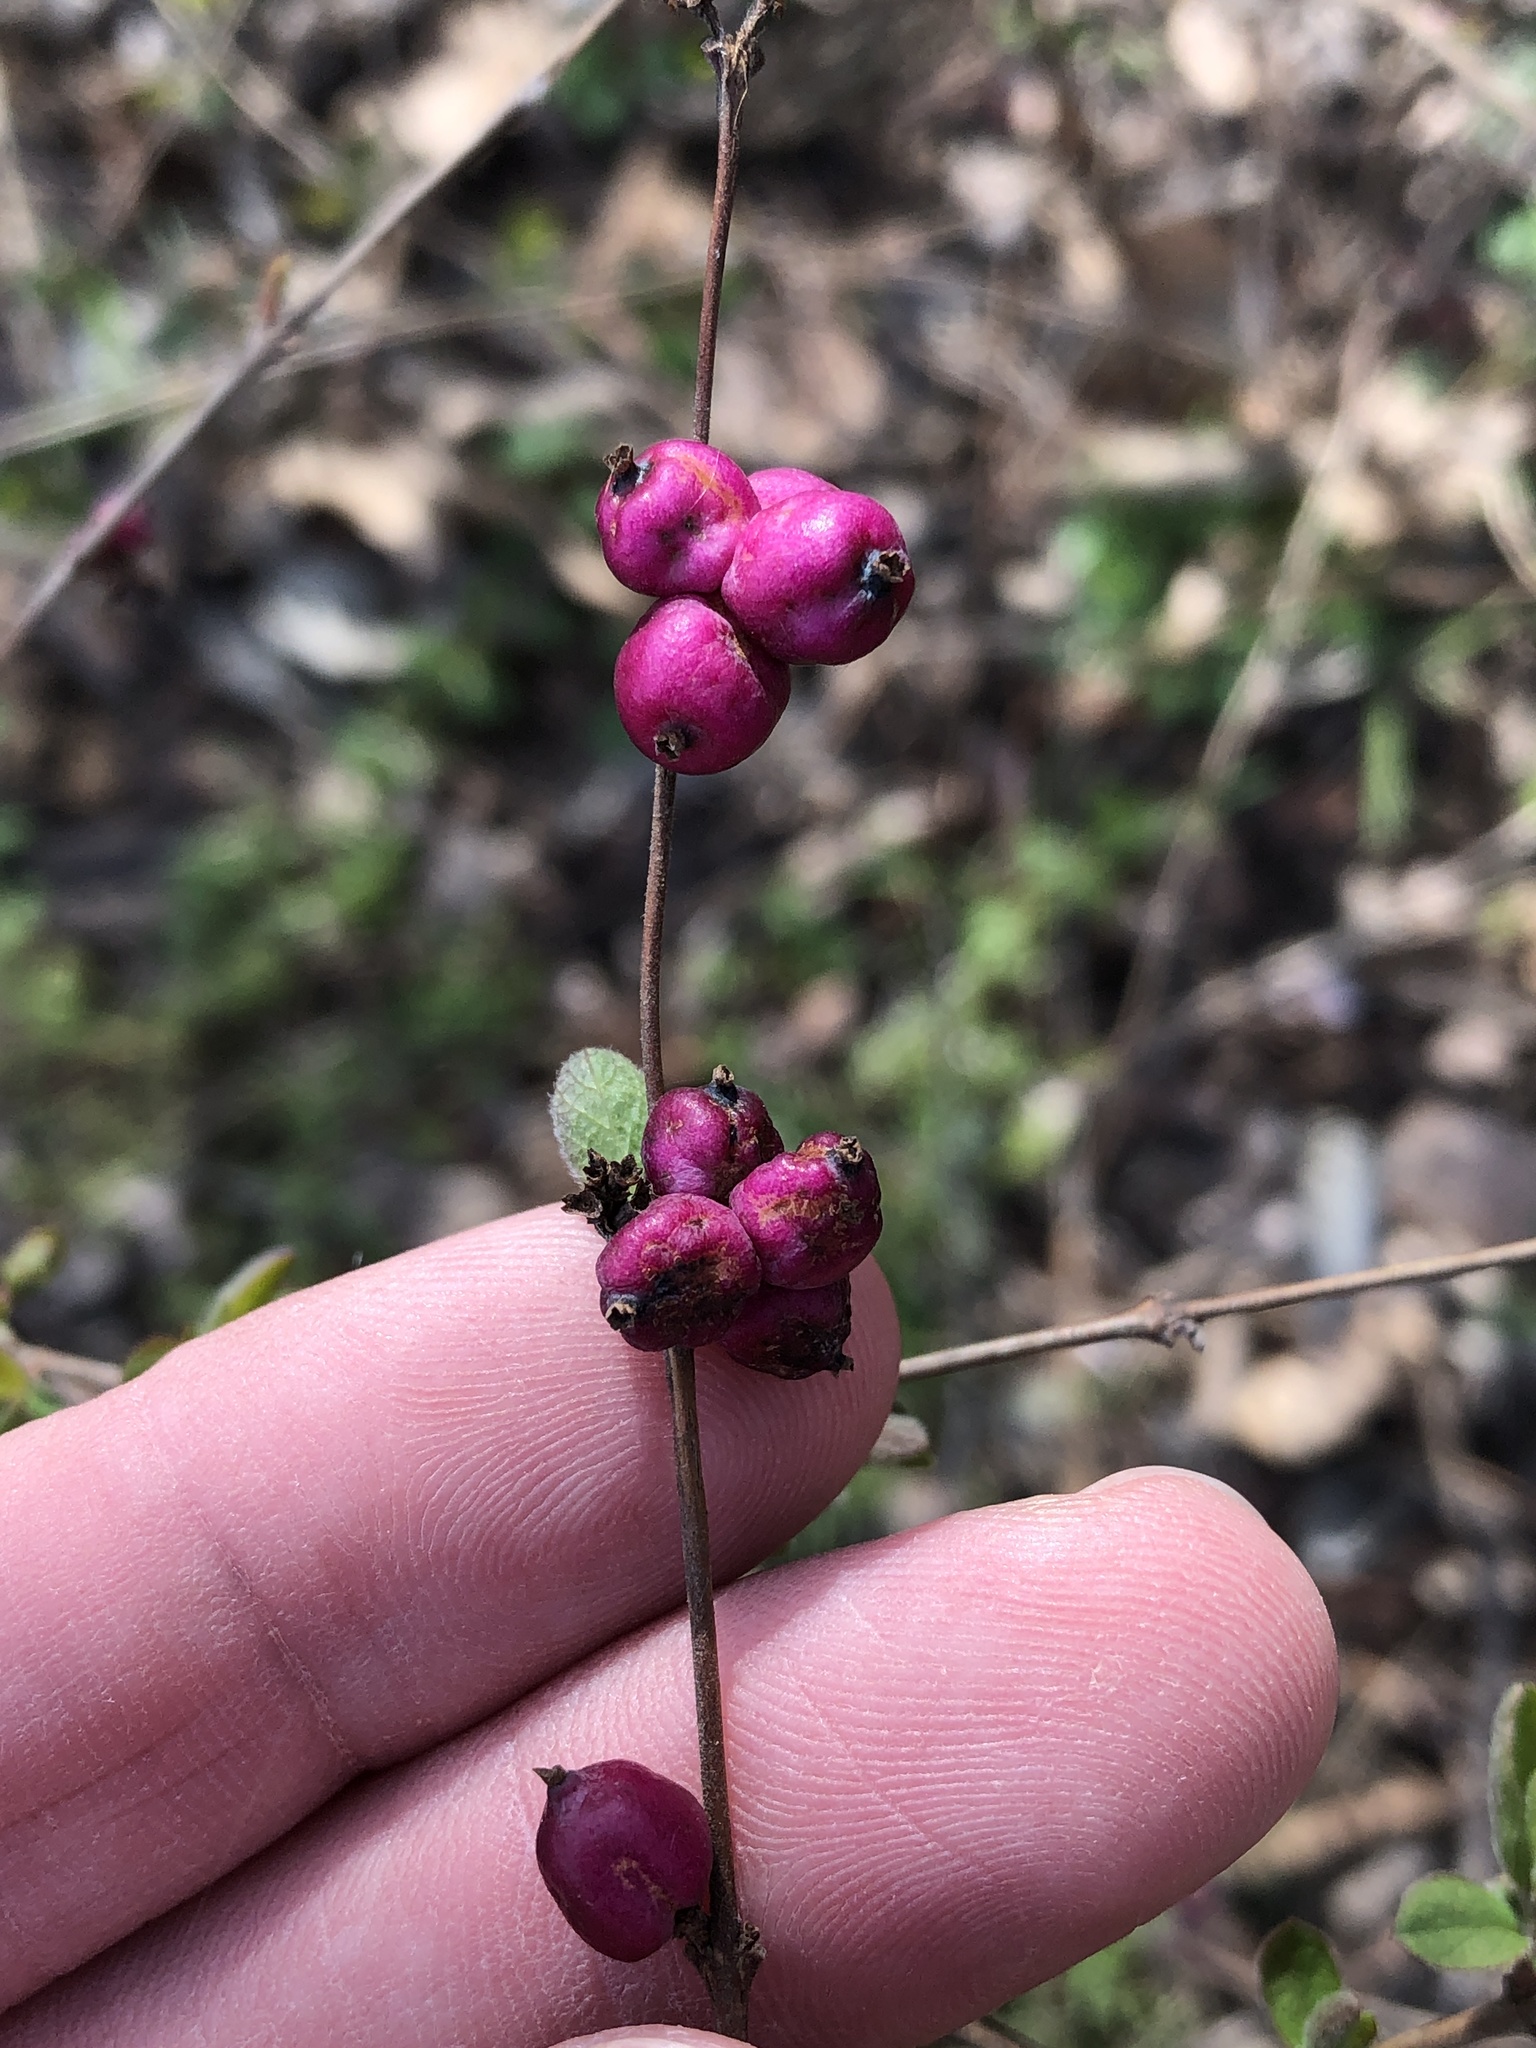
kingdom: Plantae
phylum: Tracheophyta
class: Magnoliopsida
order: Dipsacales
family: Caprifoliaceae
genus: Symphoricarpos
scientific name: Symphoricarpos orbiculatus
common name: Coralberry
